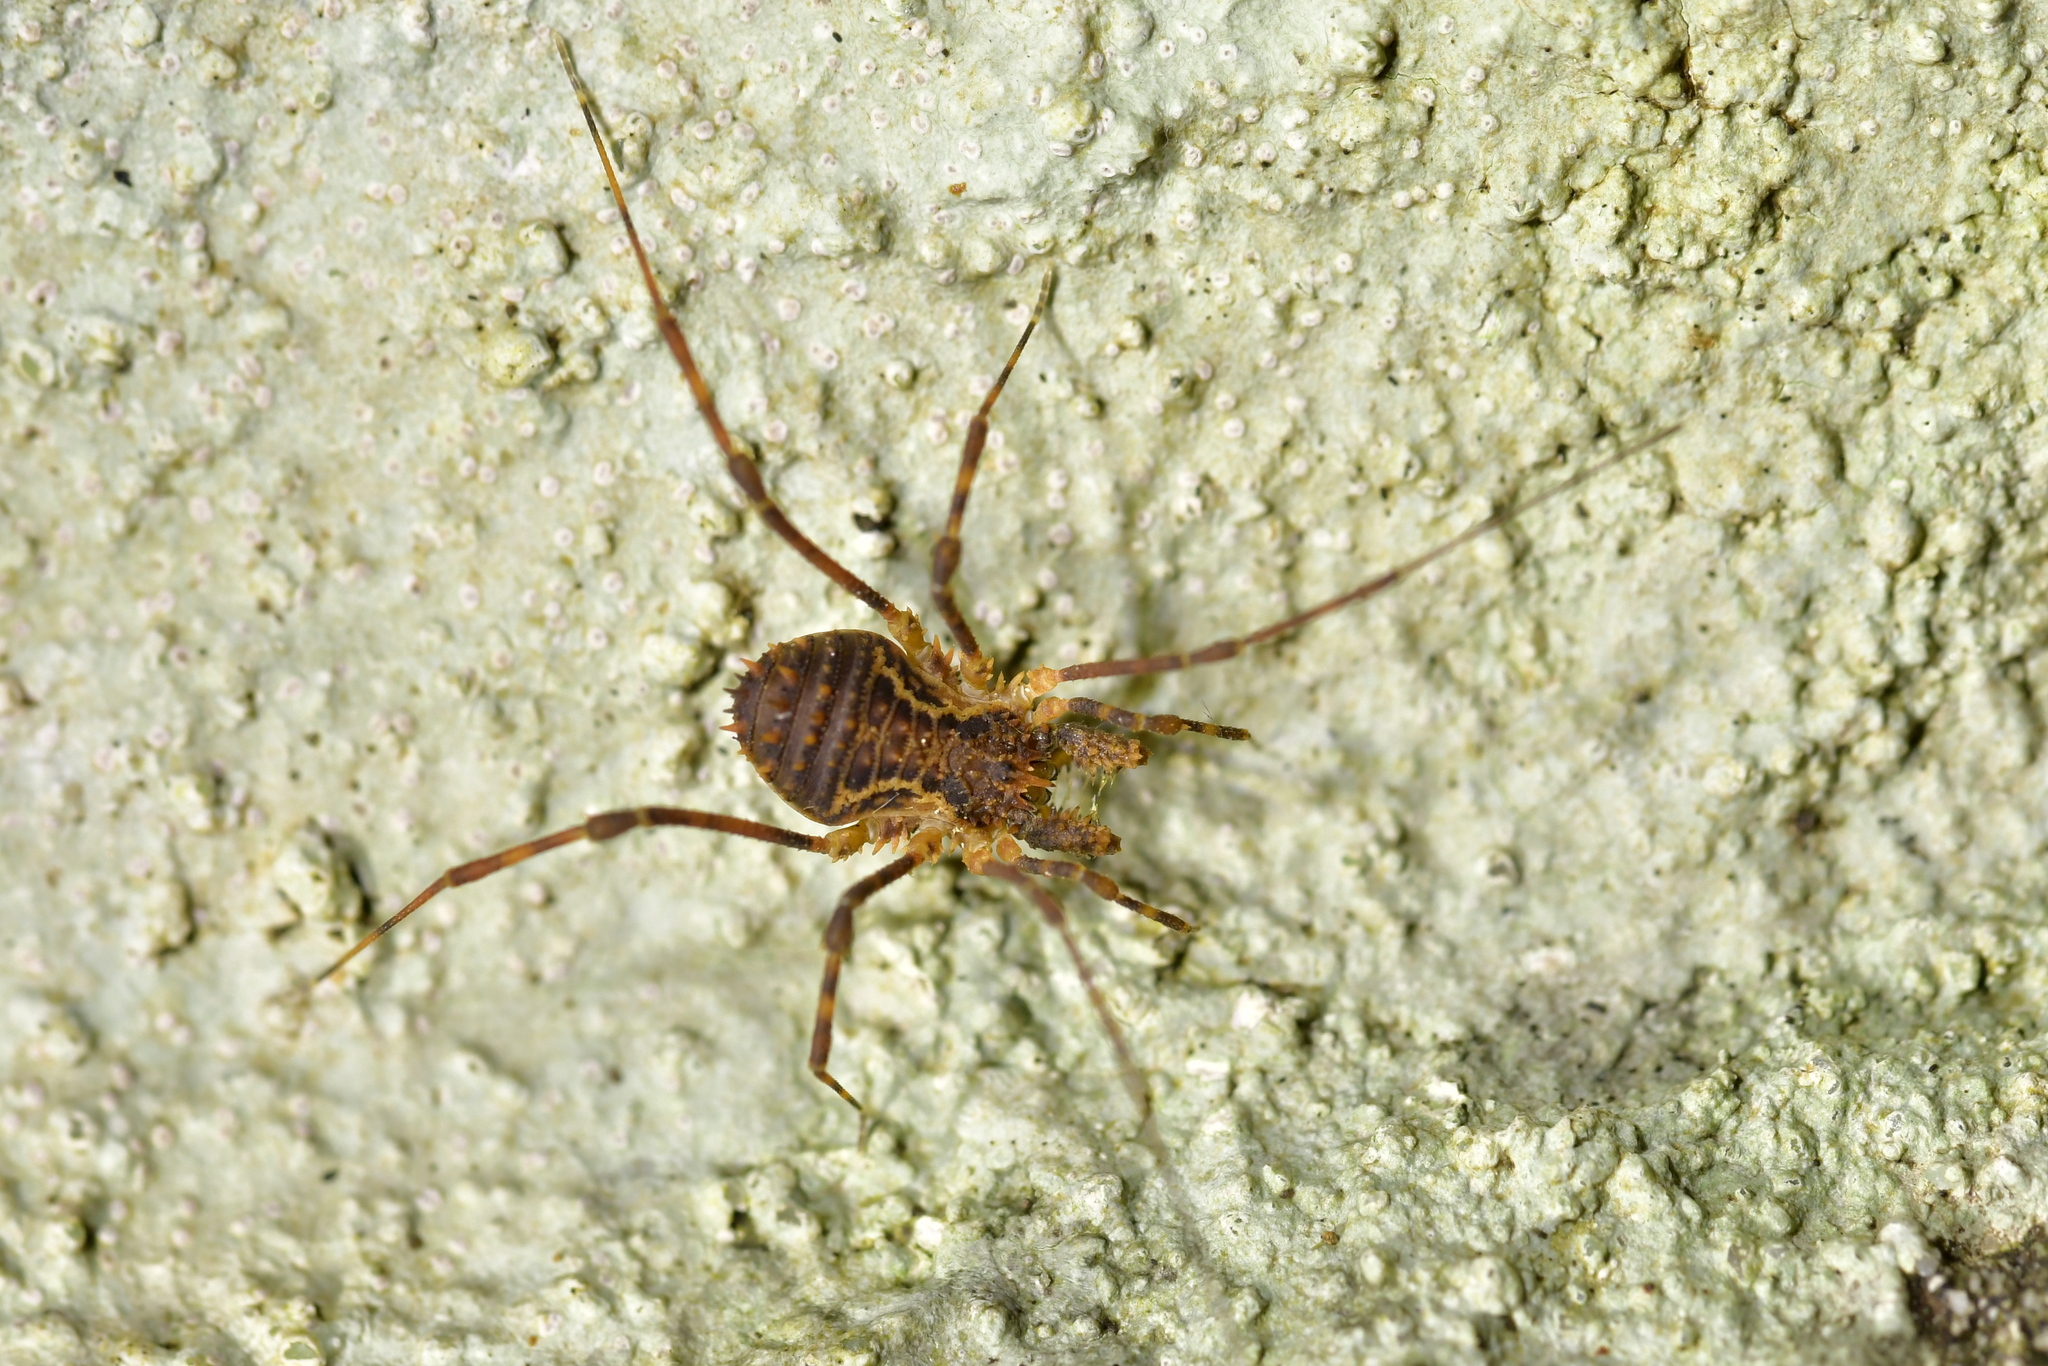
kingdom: Animalia
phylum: Arthropoda
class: Arachnida
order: Opiliones
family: Triaenonychidae
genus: Algidia
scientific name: Algidia nigriflava
